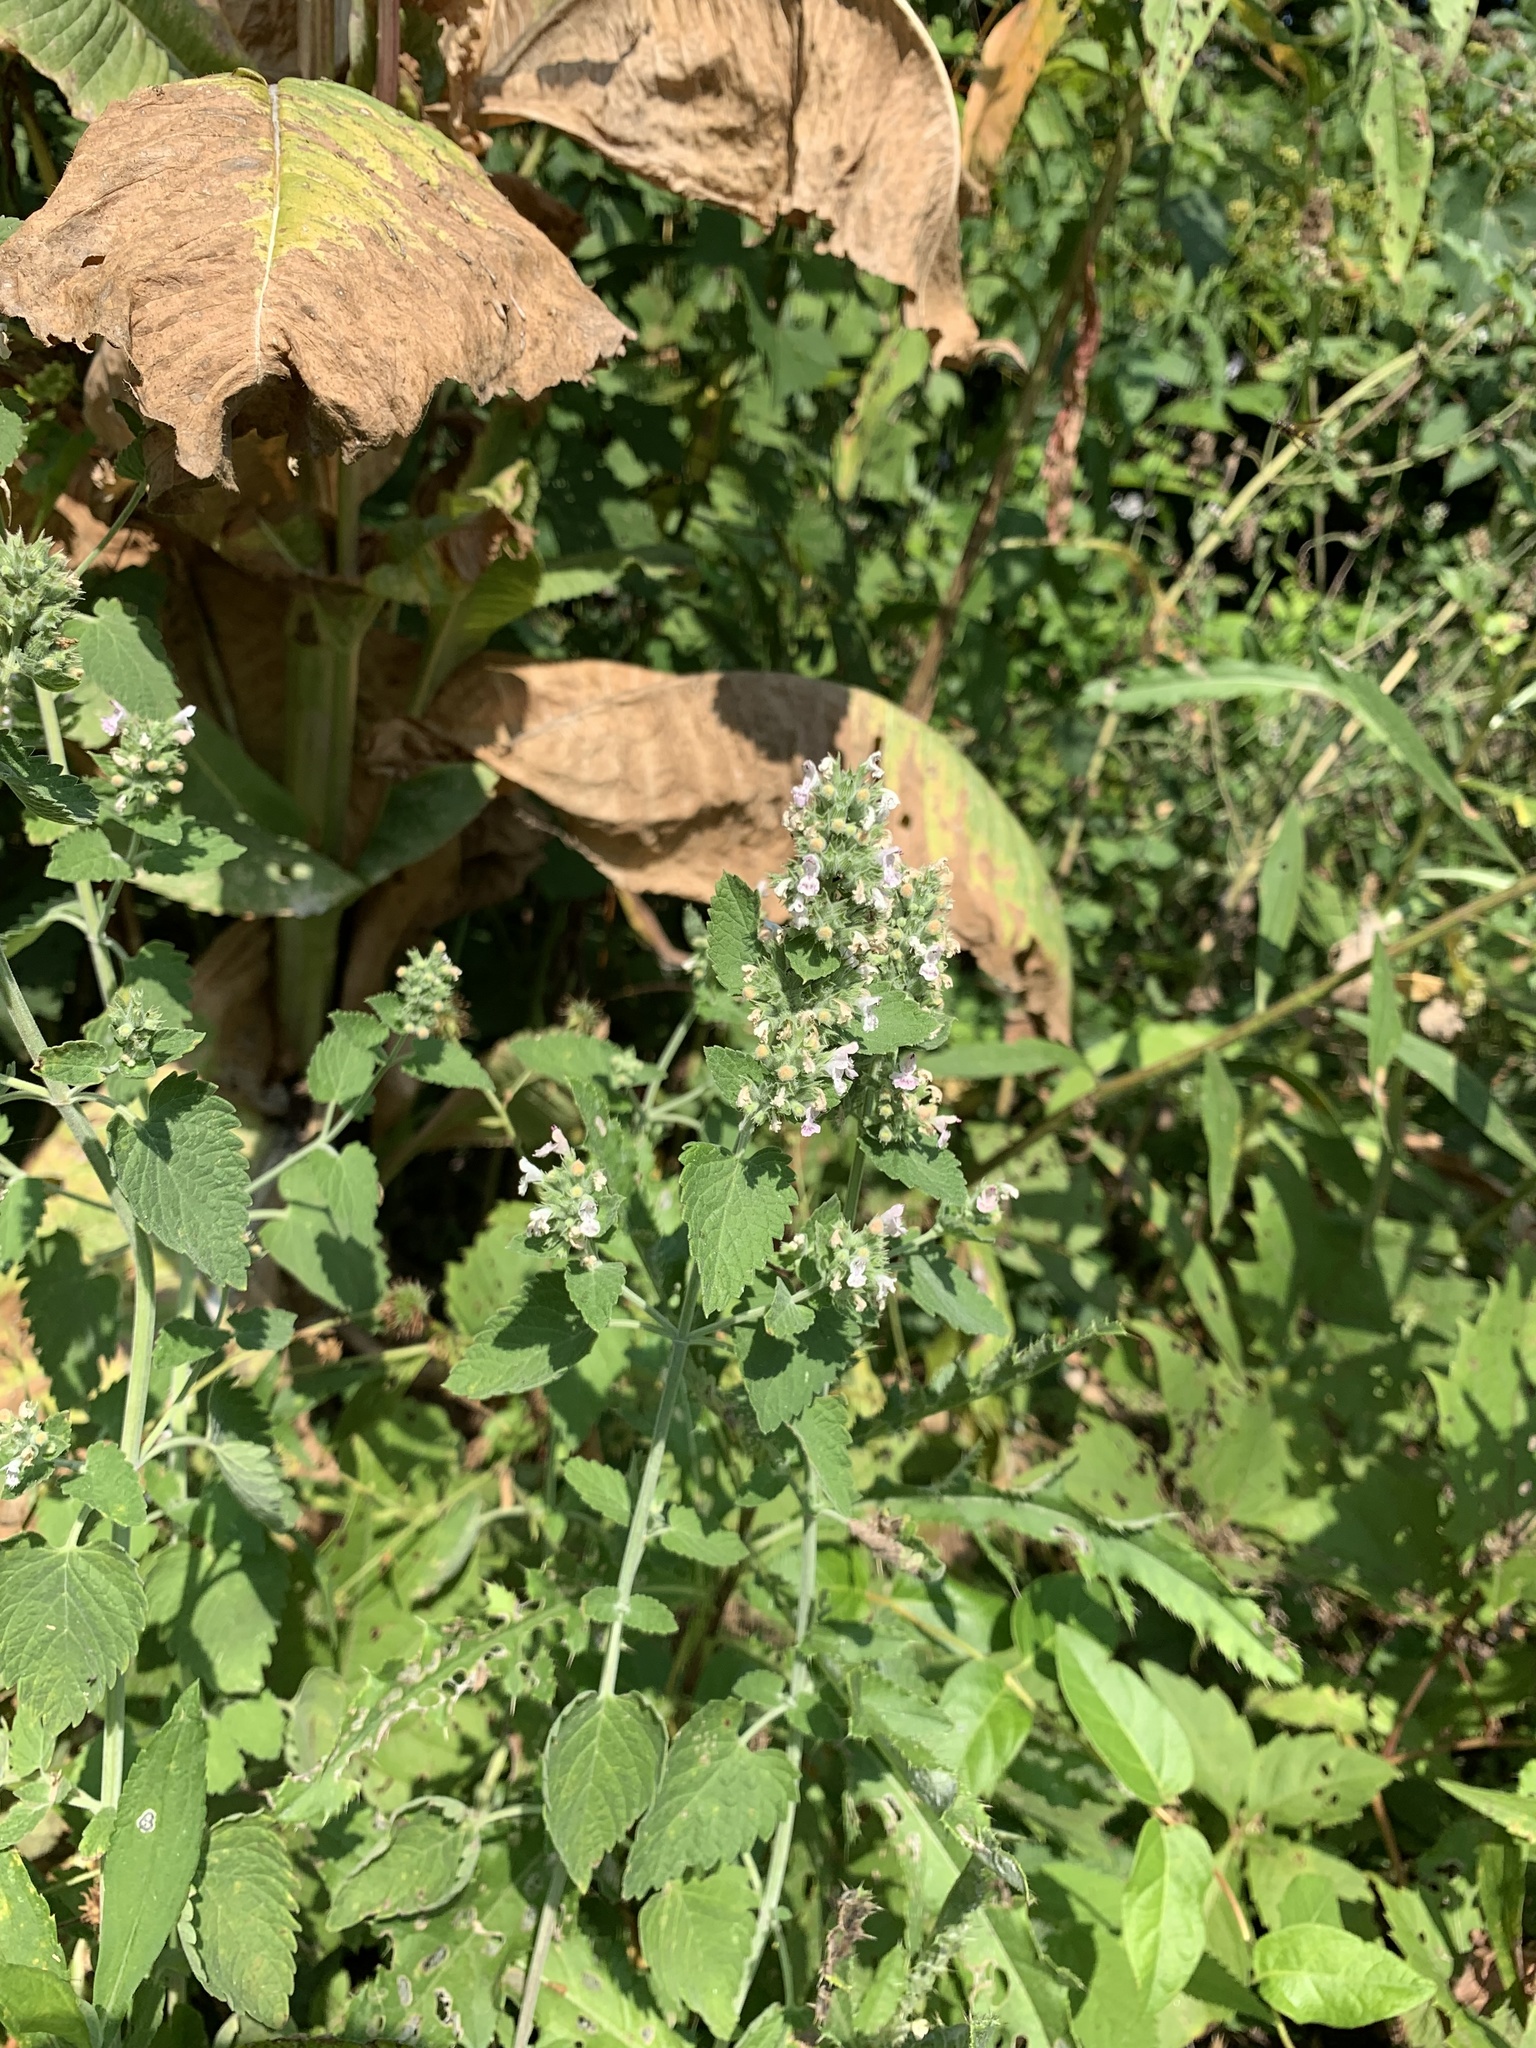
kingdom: Plantae
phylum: Tracheophyta
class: Magnoliopsida
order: Lamiales
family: Lamiaceae
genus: Nepeta
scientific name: Nepeta cataria
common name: Catnip
